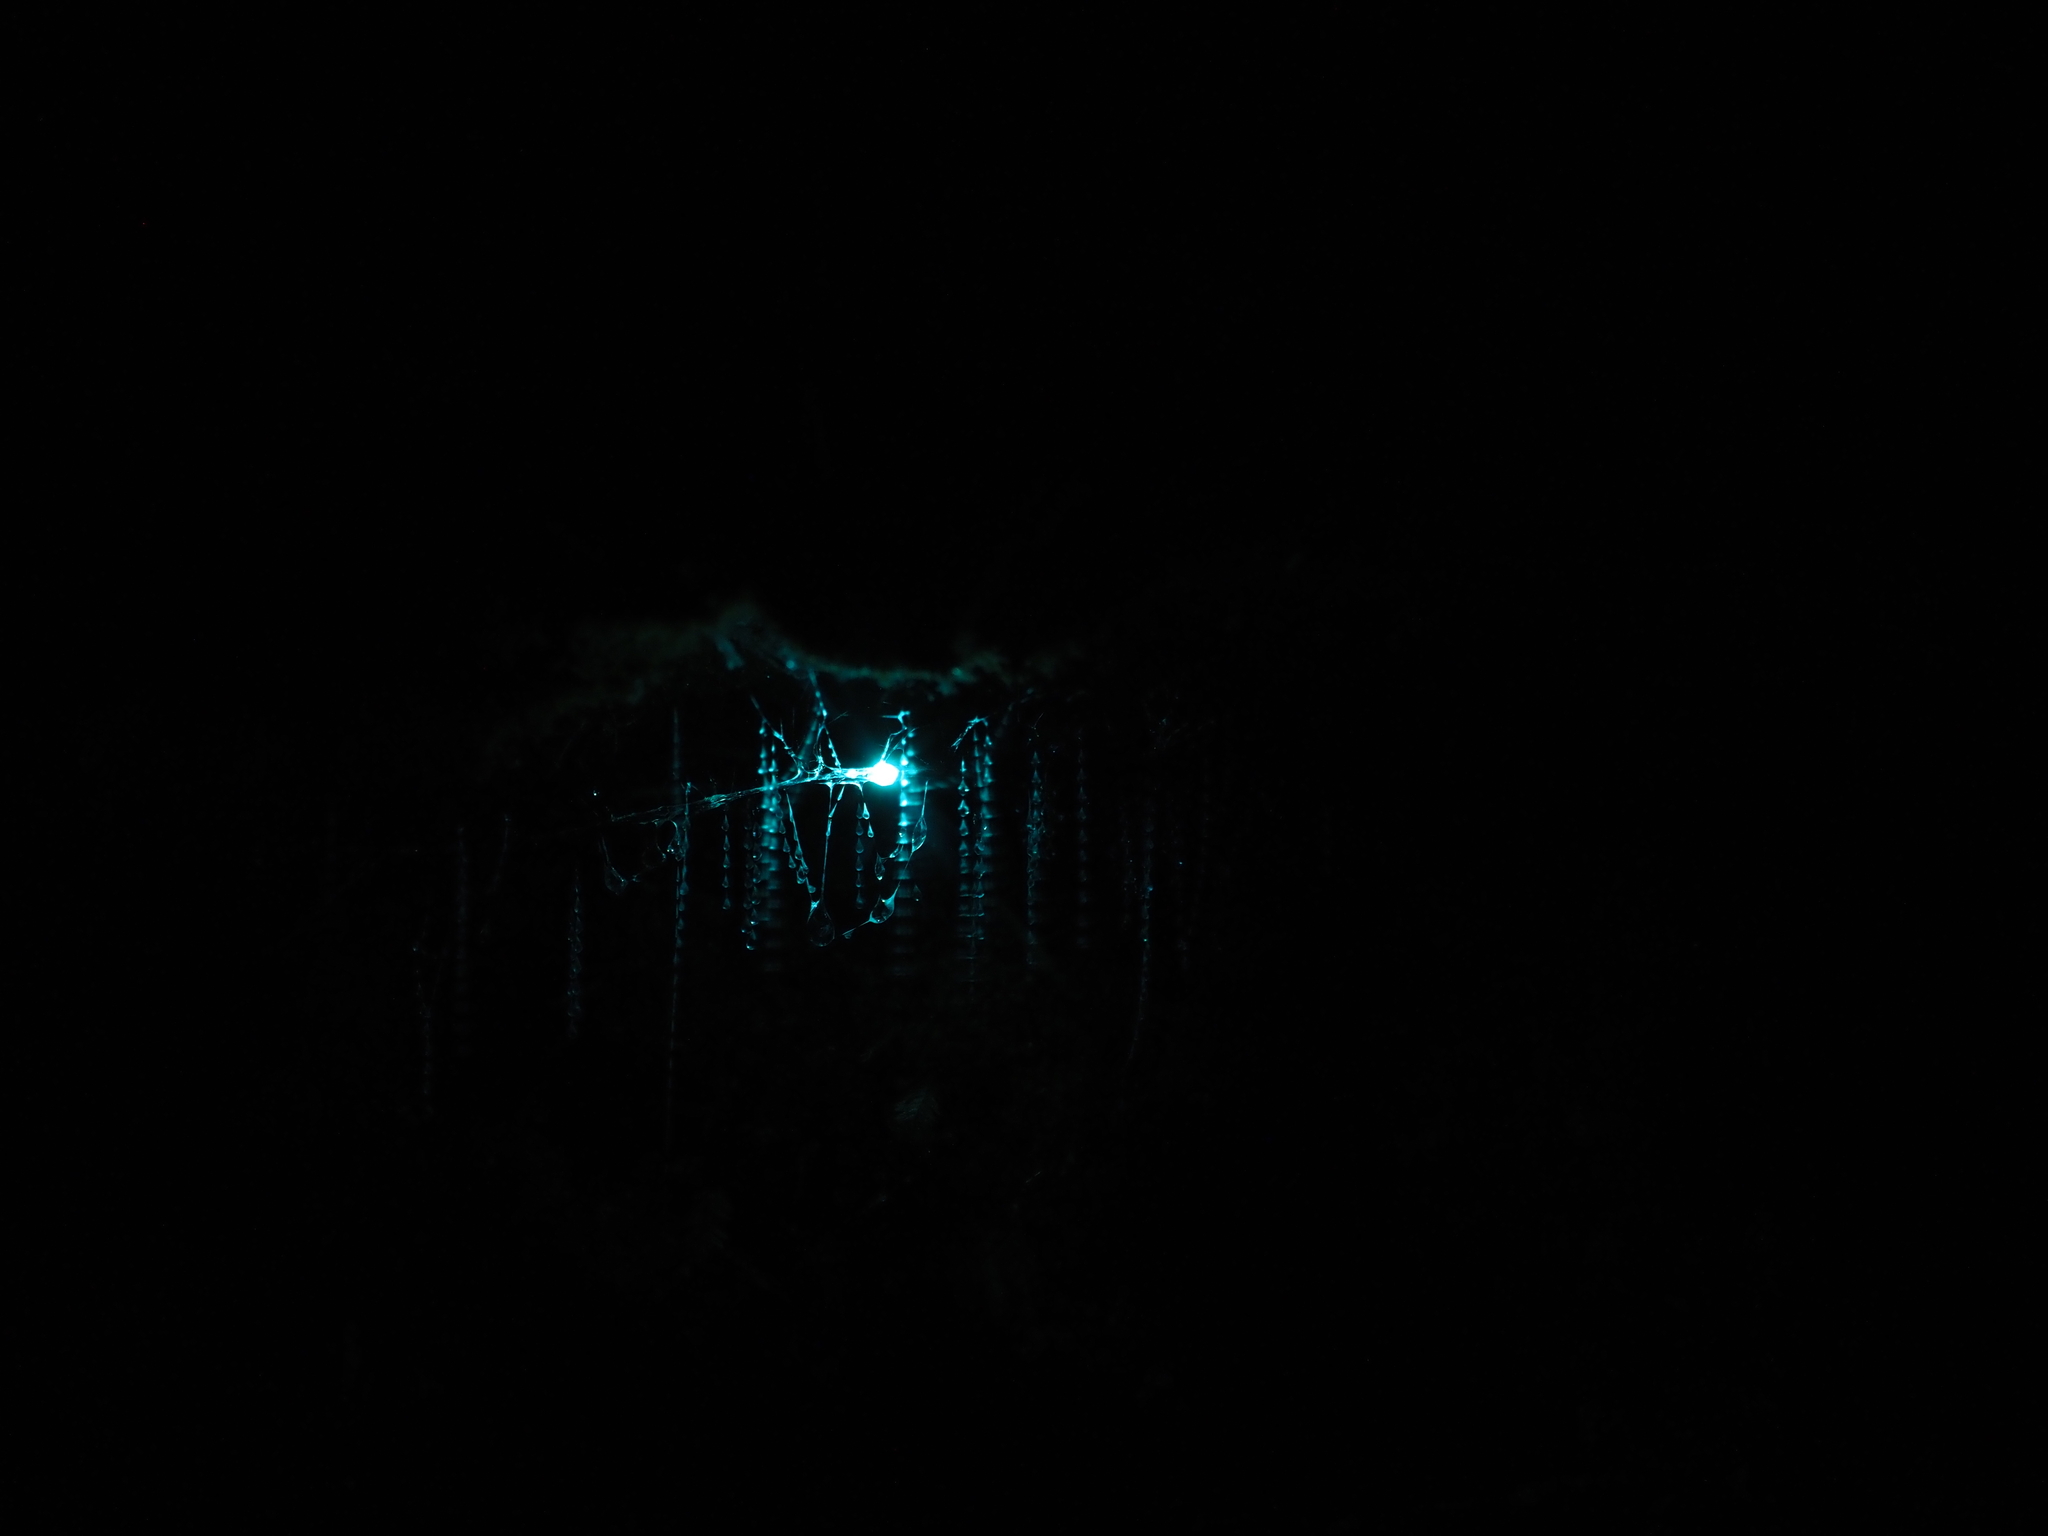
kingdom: Animalia
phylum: Arthropoda
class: Insecta
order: Diptera
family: Keroplatidae
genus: Arachnocampa
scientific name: Arachnocampa luminosa
